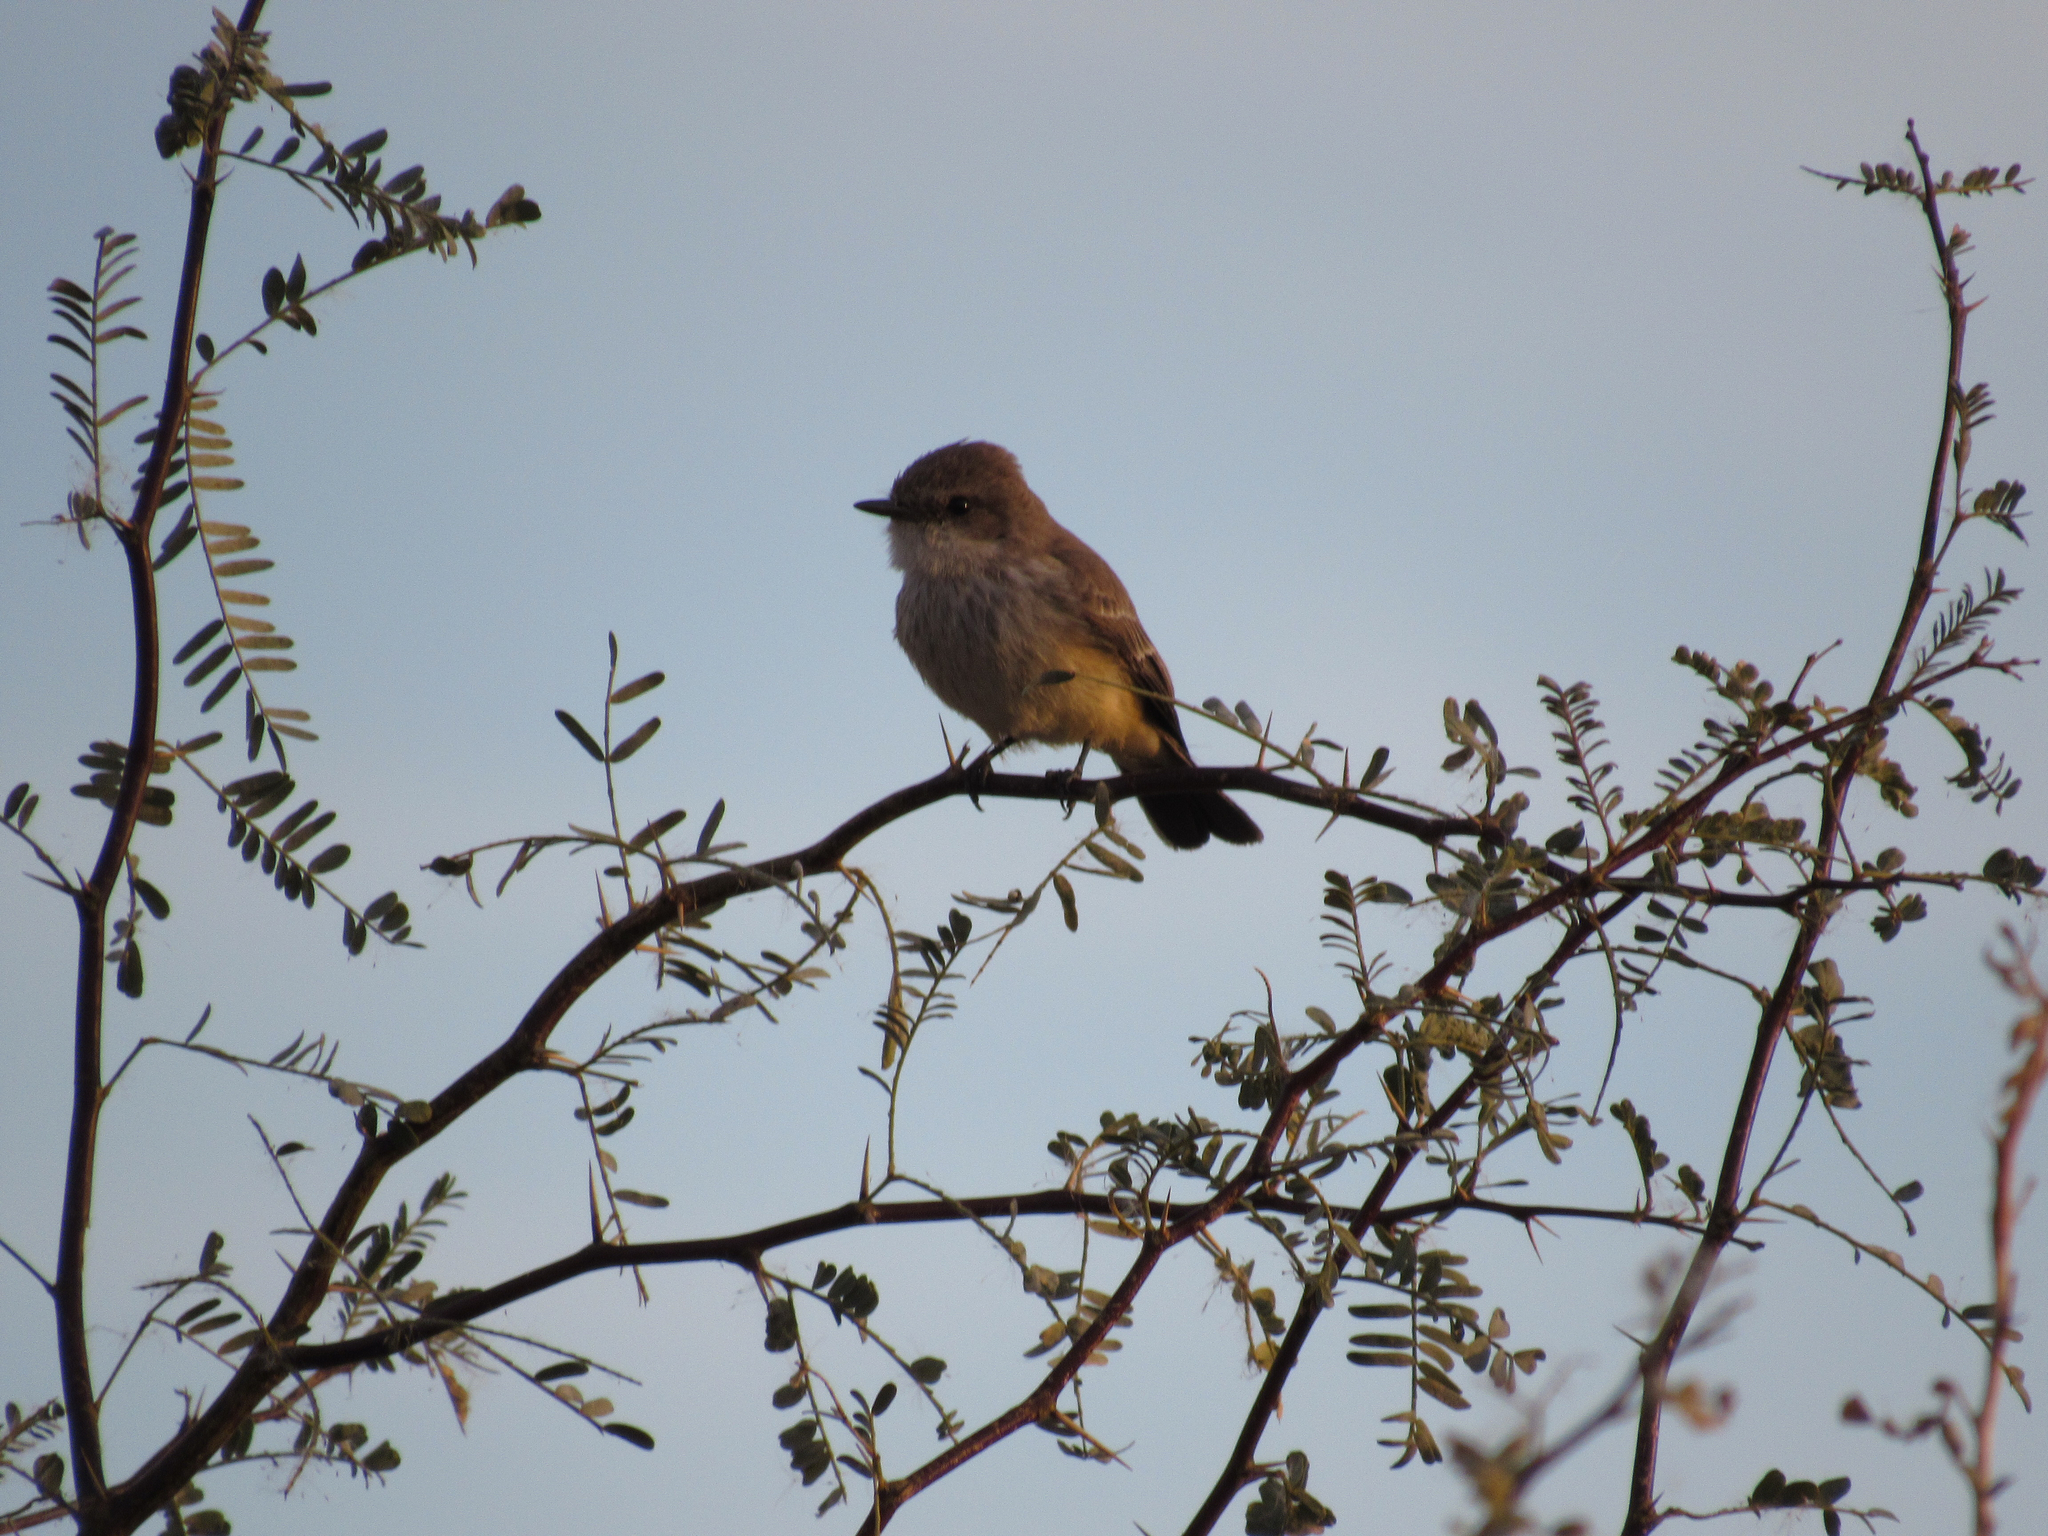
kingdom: Animalia
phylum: Chordata
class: Aves
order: Passeriformes
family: Tyrannidae
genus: Pyrocephalus
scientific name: Pyrocephalus rubinus
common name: Vermilion flycatcher
